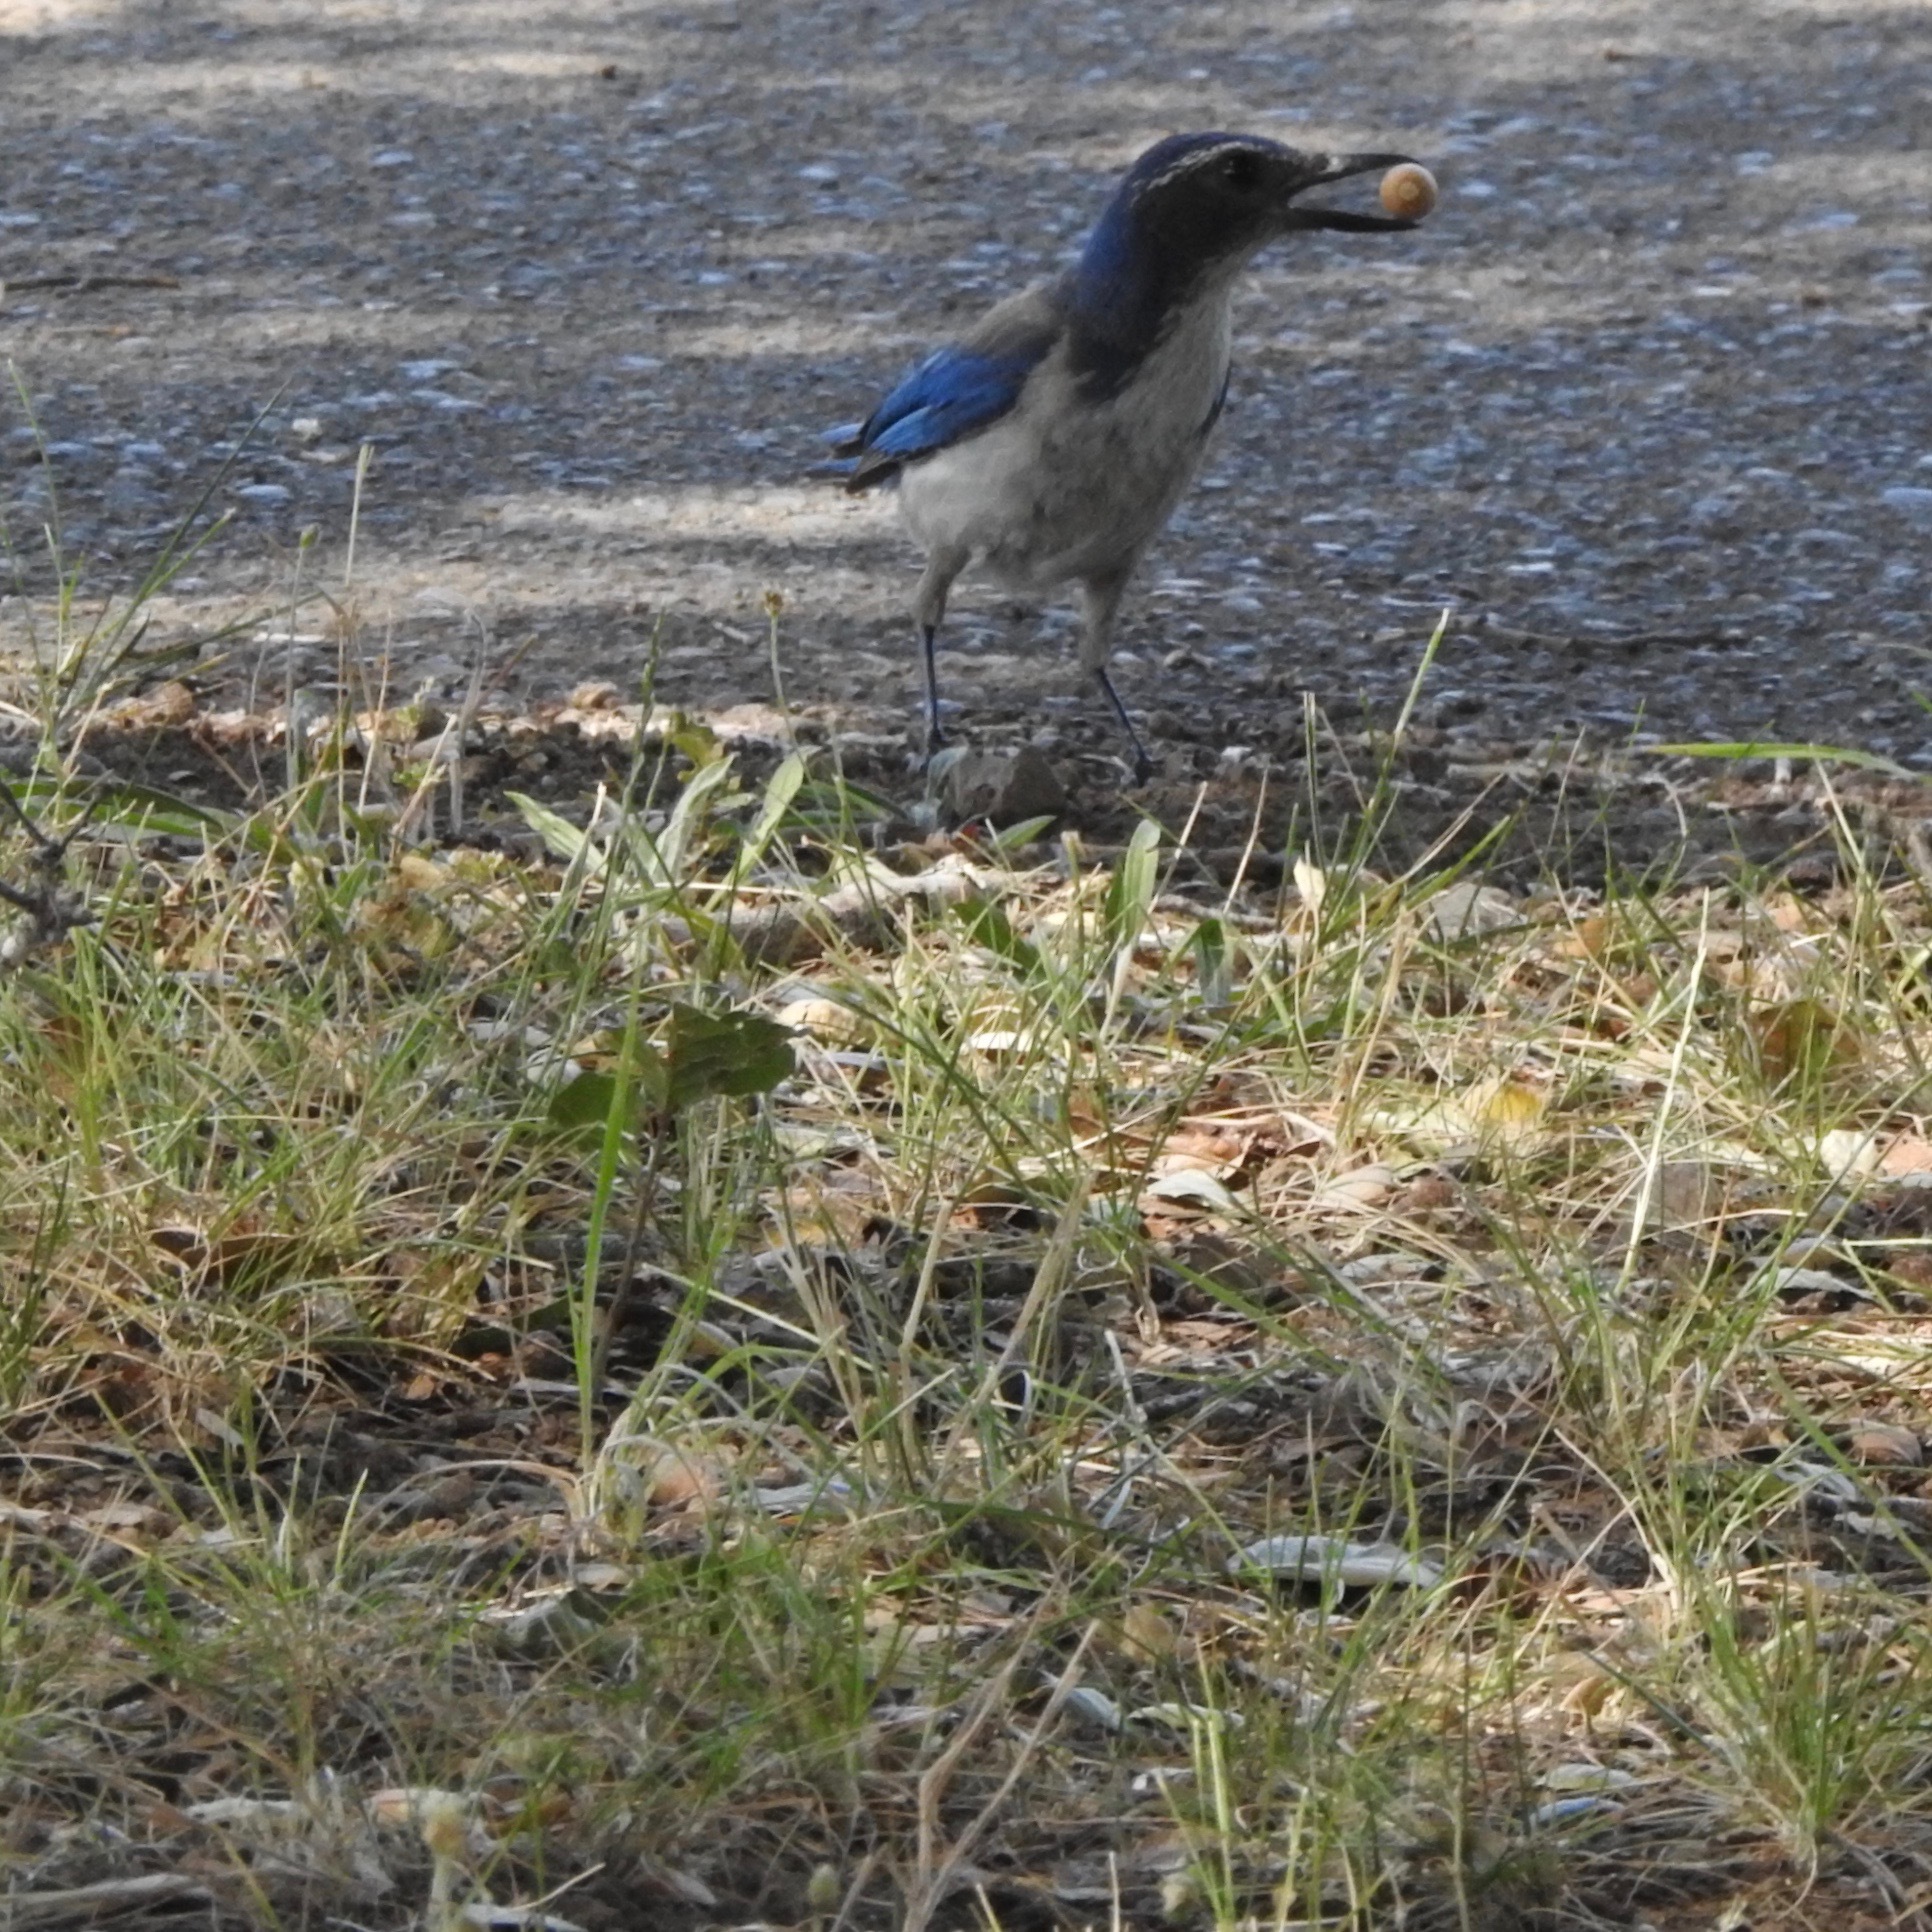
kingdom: Animalia
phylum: Chordata
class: Aves
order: Passeriformes
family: Corvidae
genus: Aphelocoma
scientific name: Aphelocoma californica
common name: California scrub-jay
